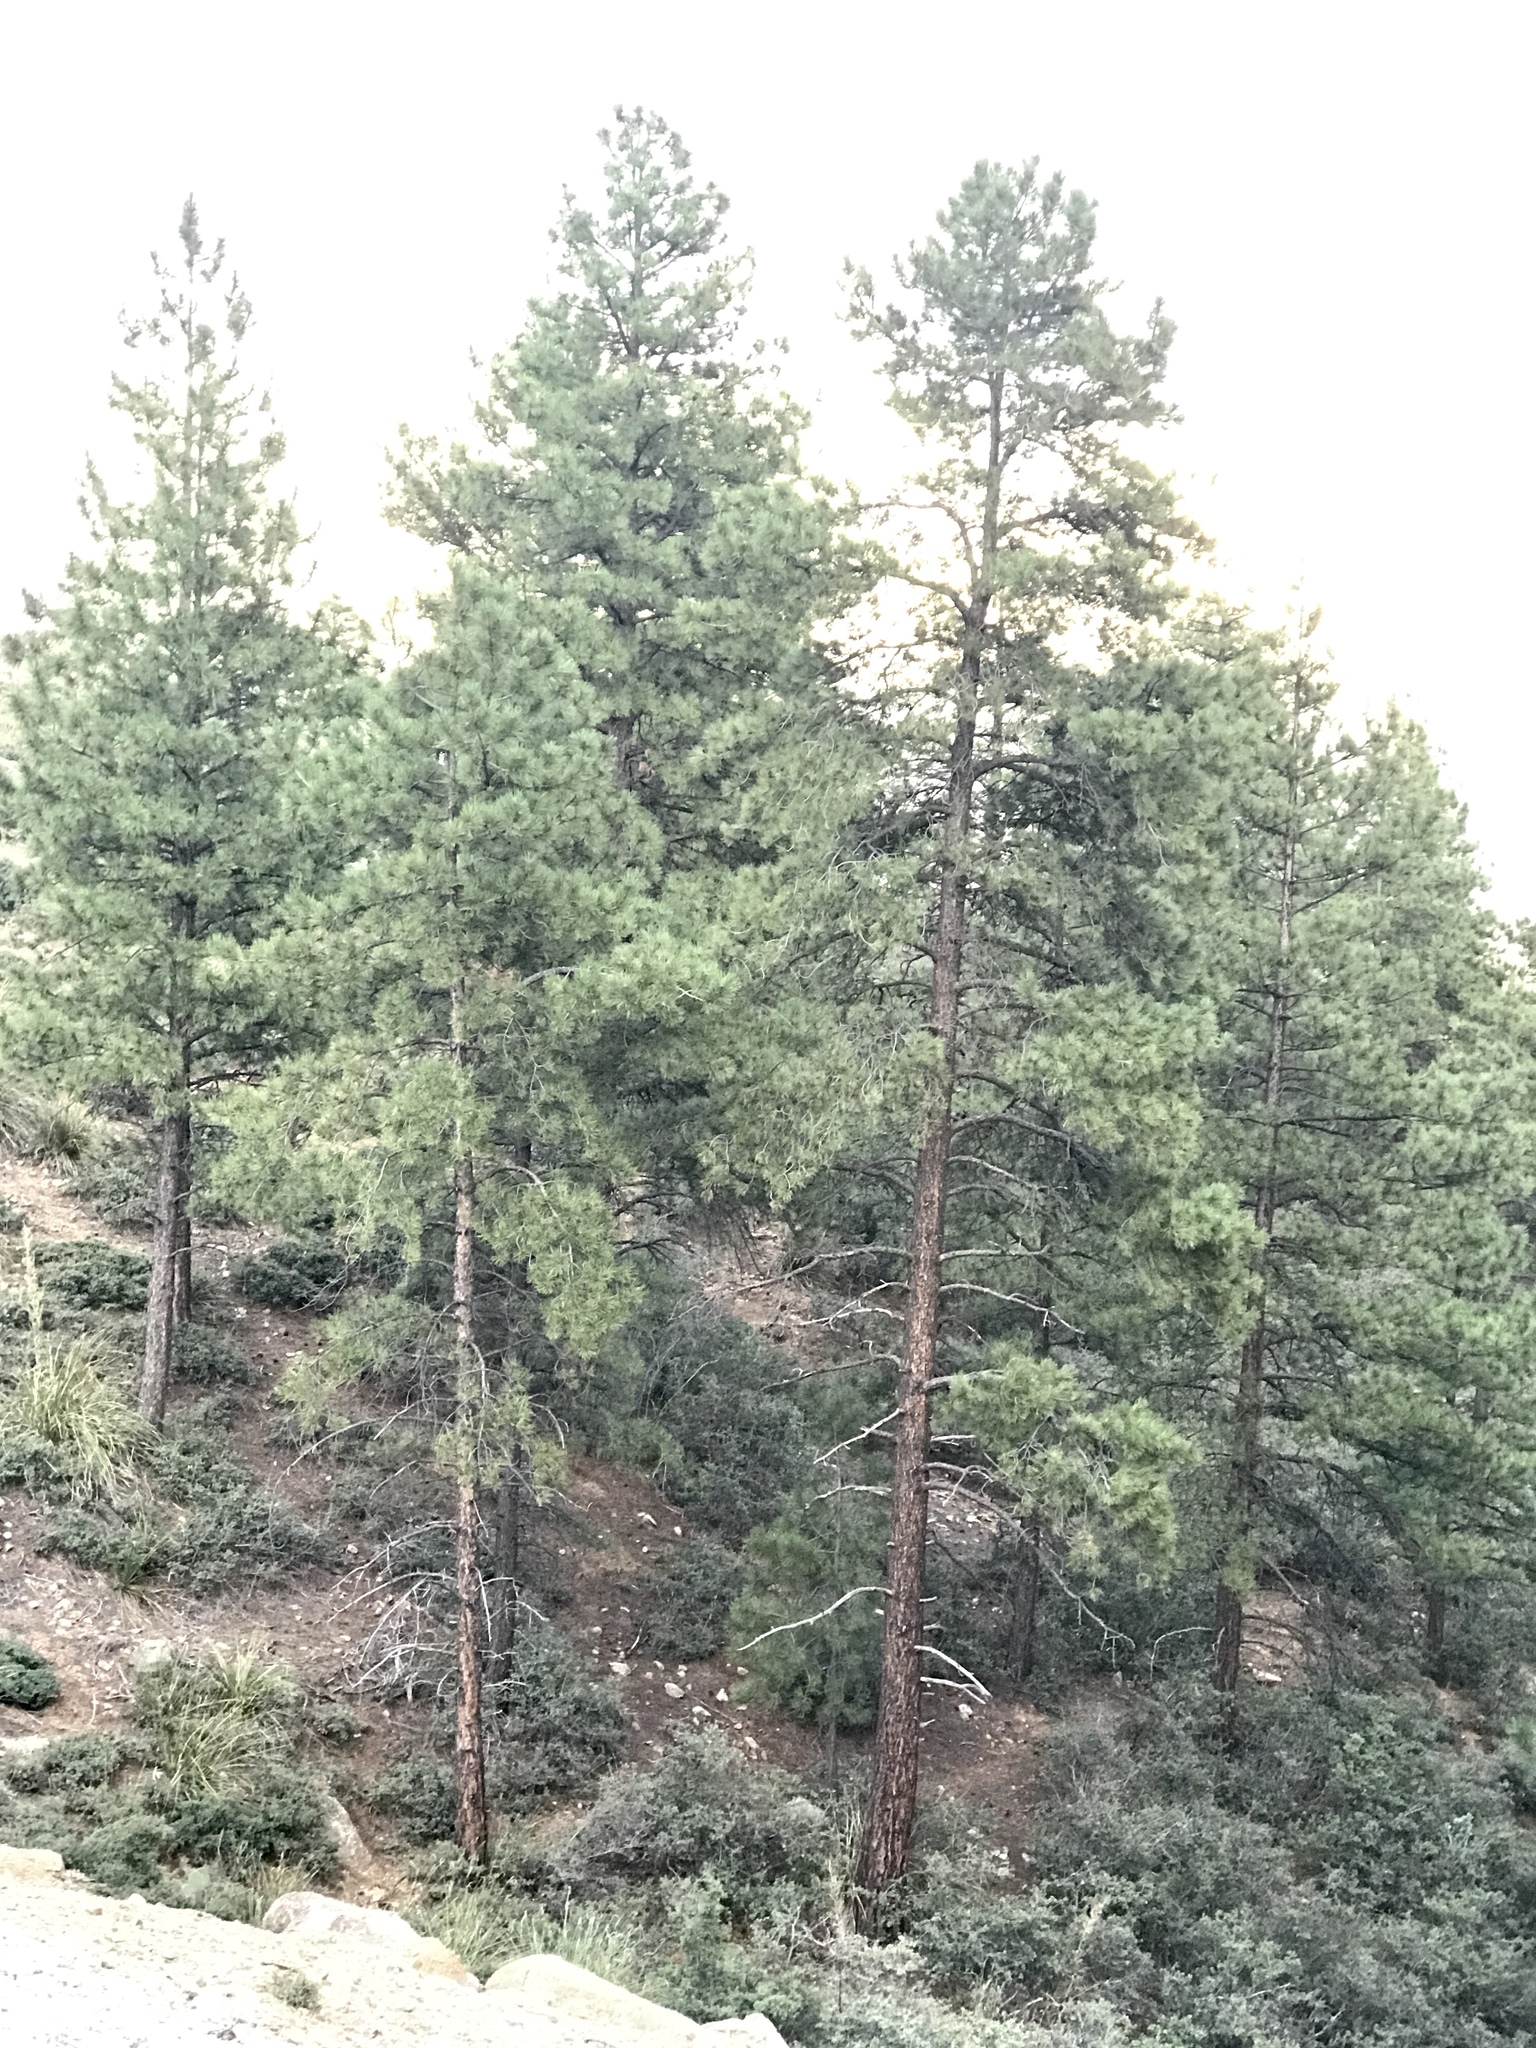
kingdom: Plantae
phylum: Tracheophyta
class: Pinopsida
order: Pinales
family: Pinaceae
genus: Pinus
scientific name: Pinus ponderosa
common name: Western yellow-pine
